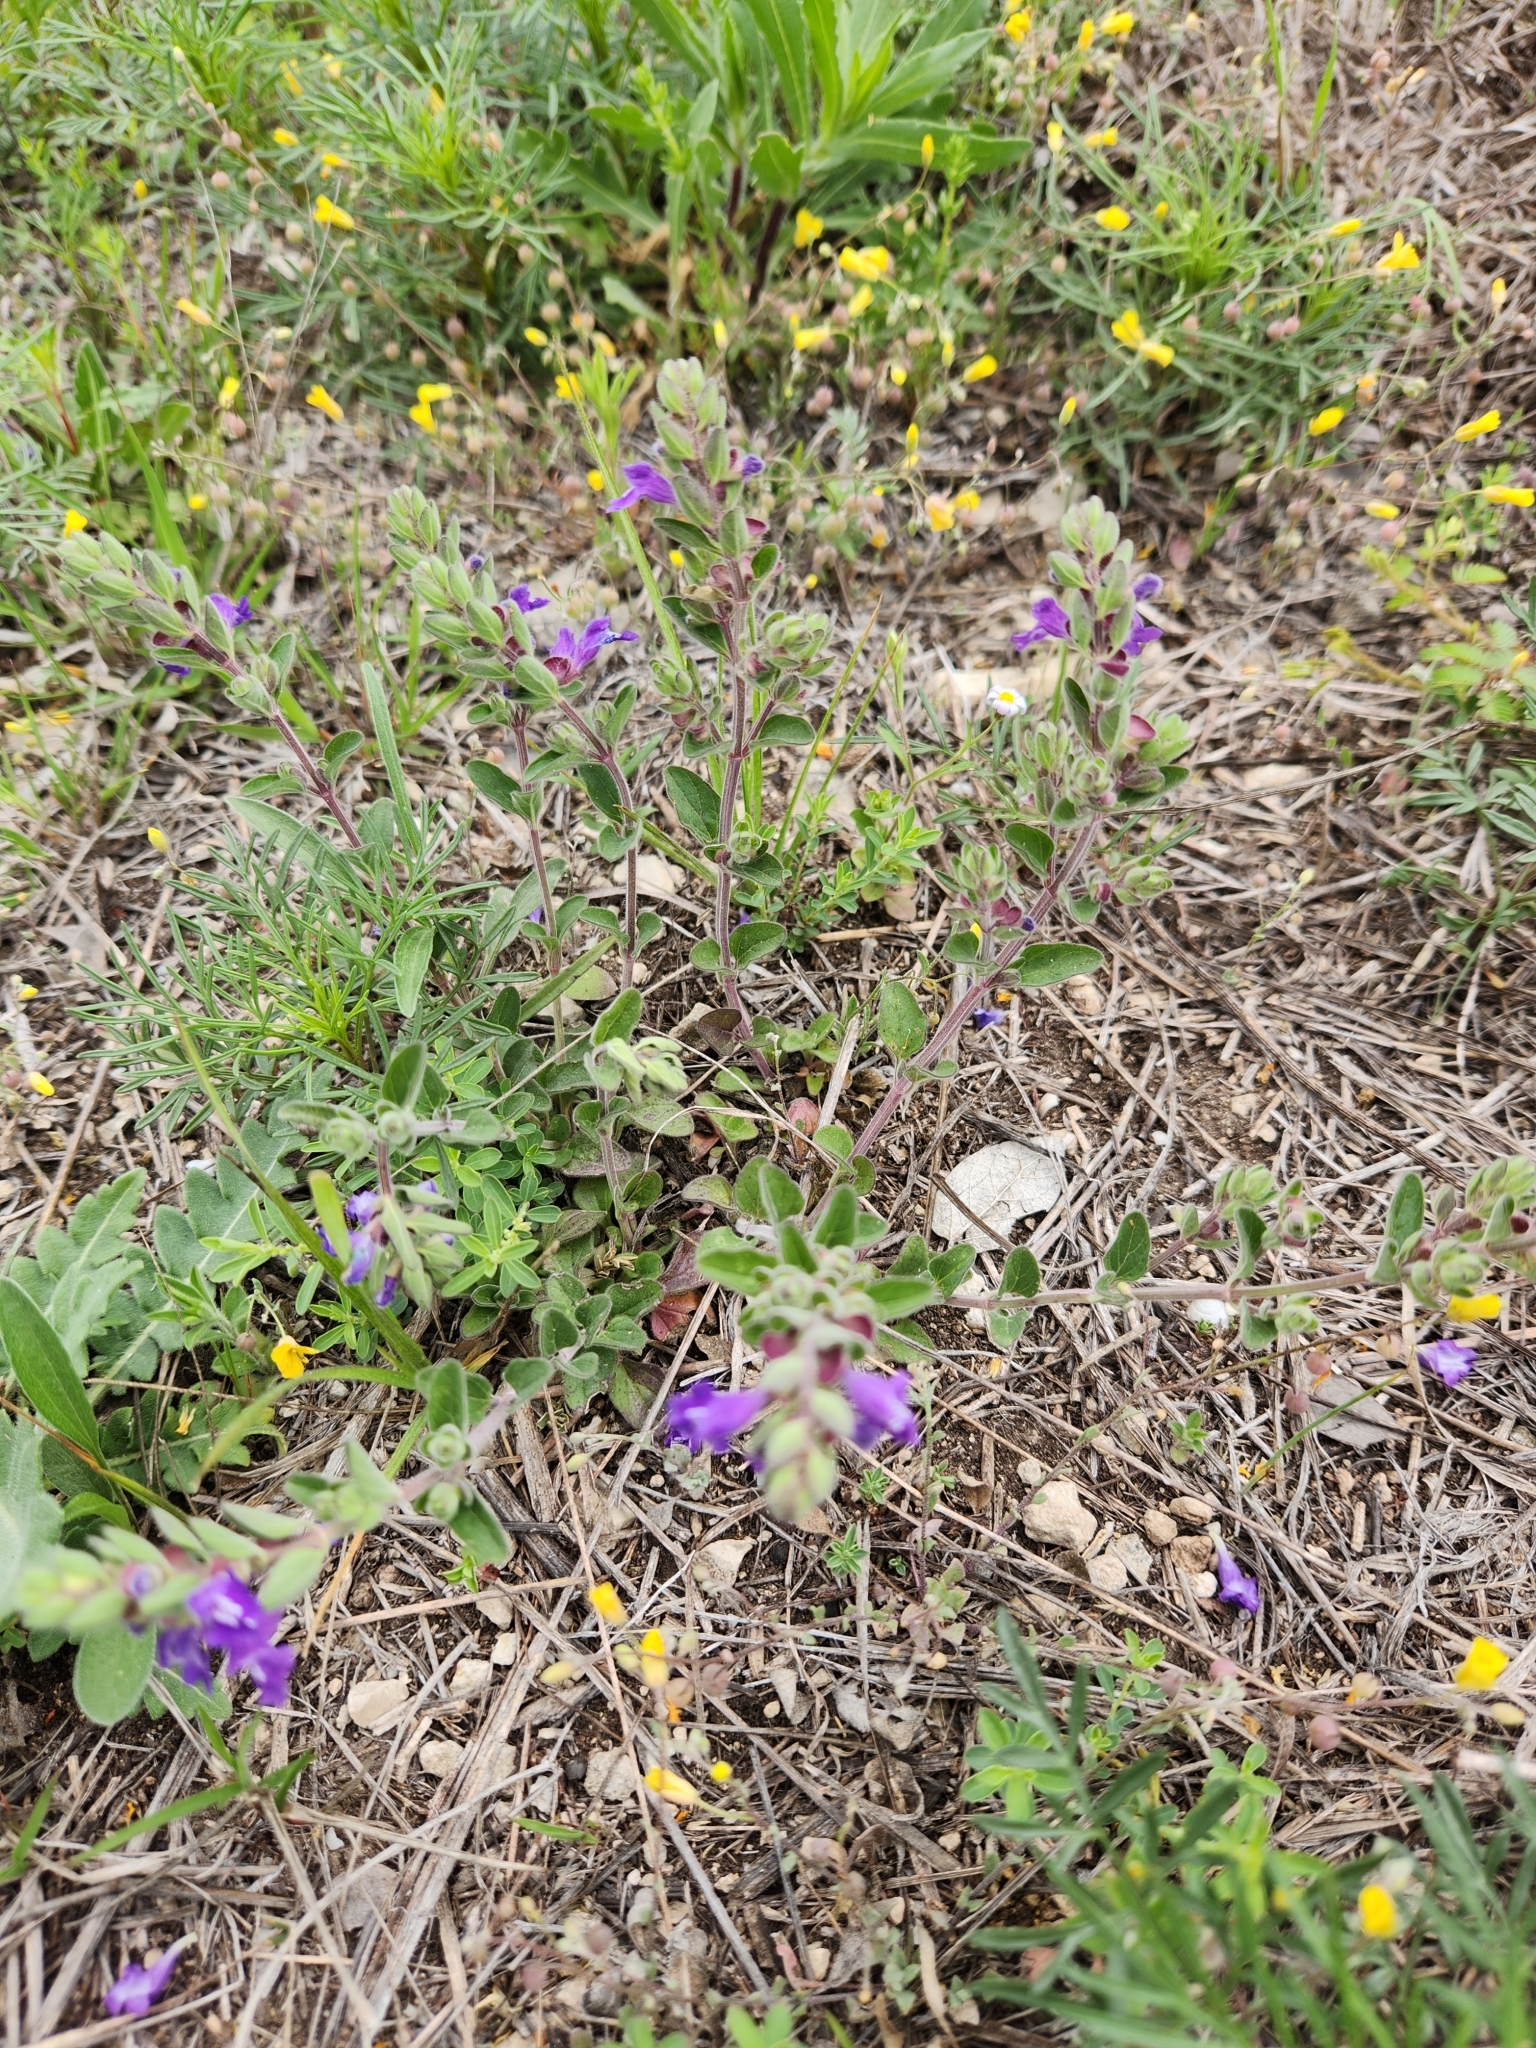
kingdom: Plantae
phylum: Tracheophyta
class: Magnoliopsida
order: Lamiales
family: Lamiaceae
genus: Scutellaria
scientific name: Scutellaria drummondii
